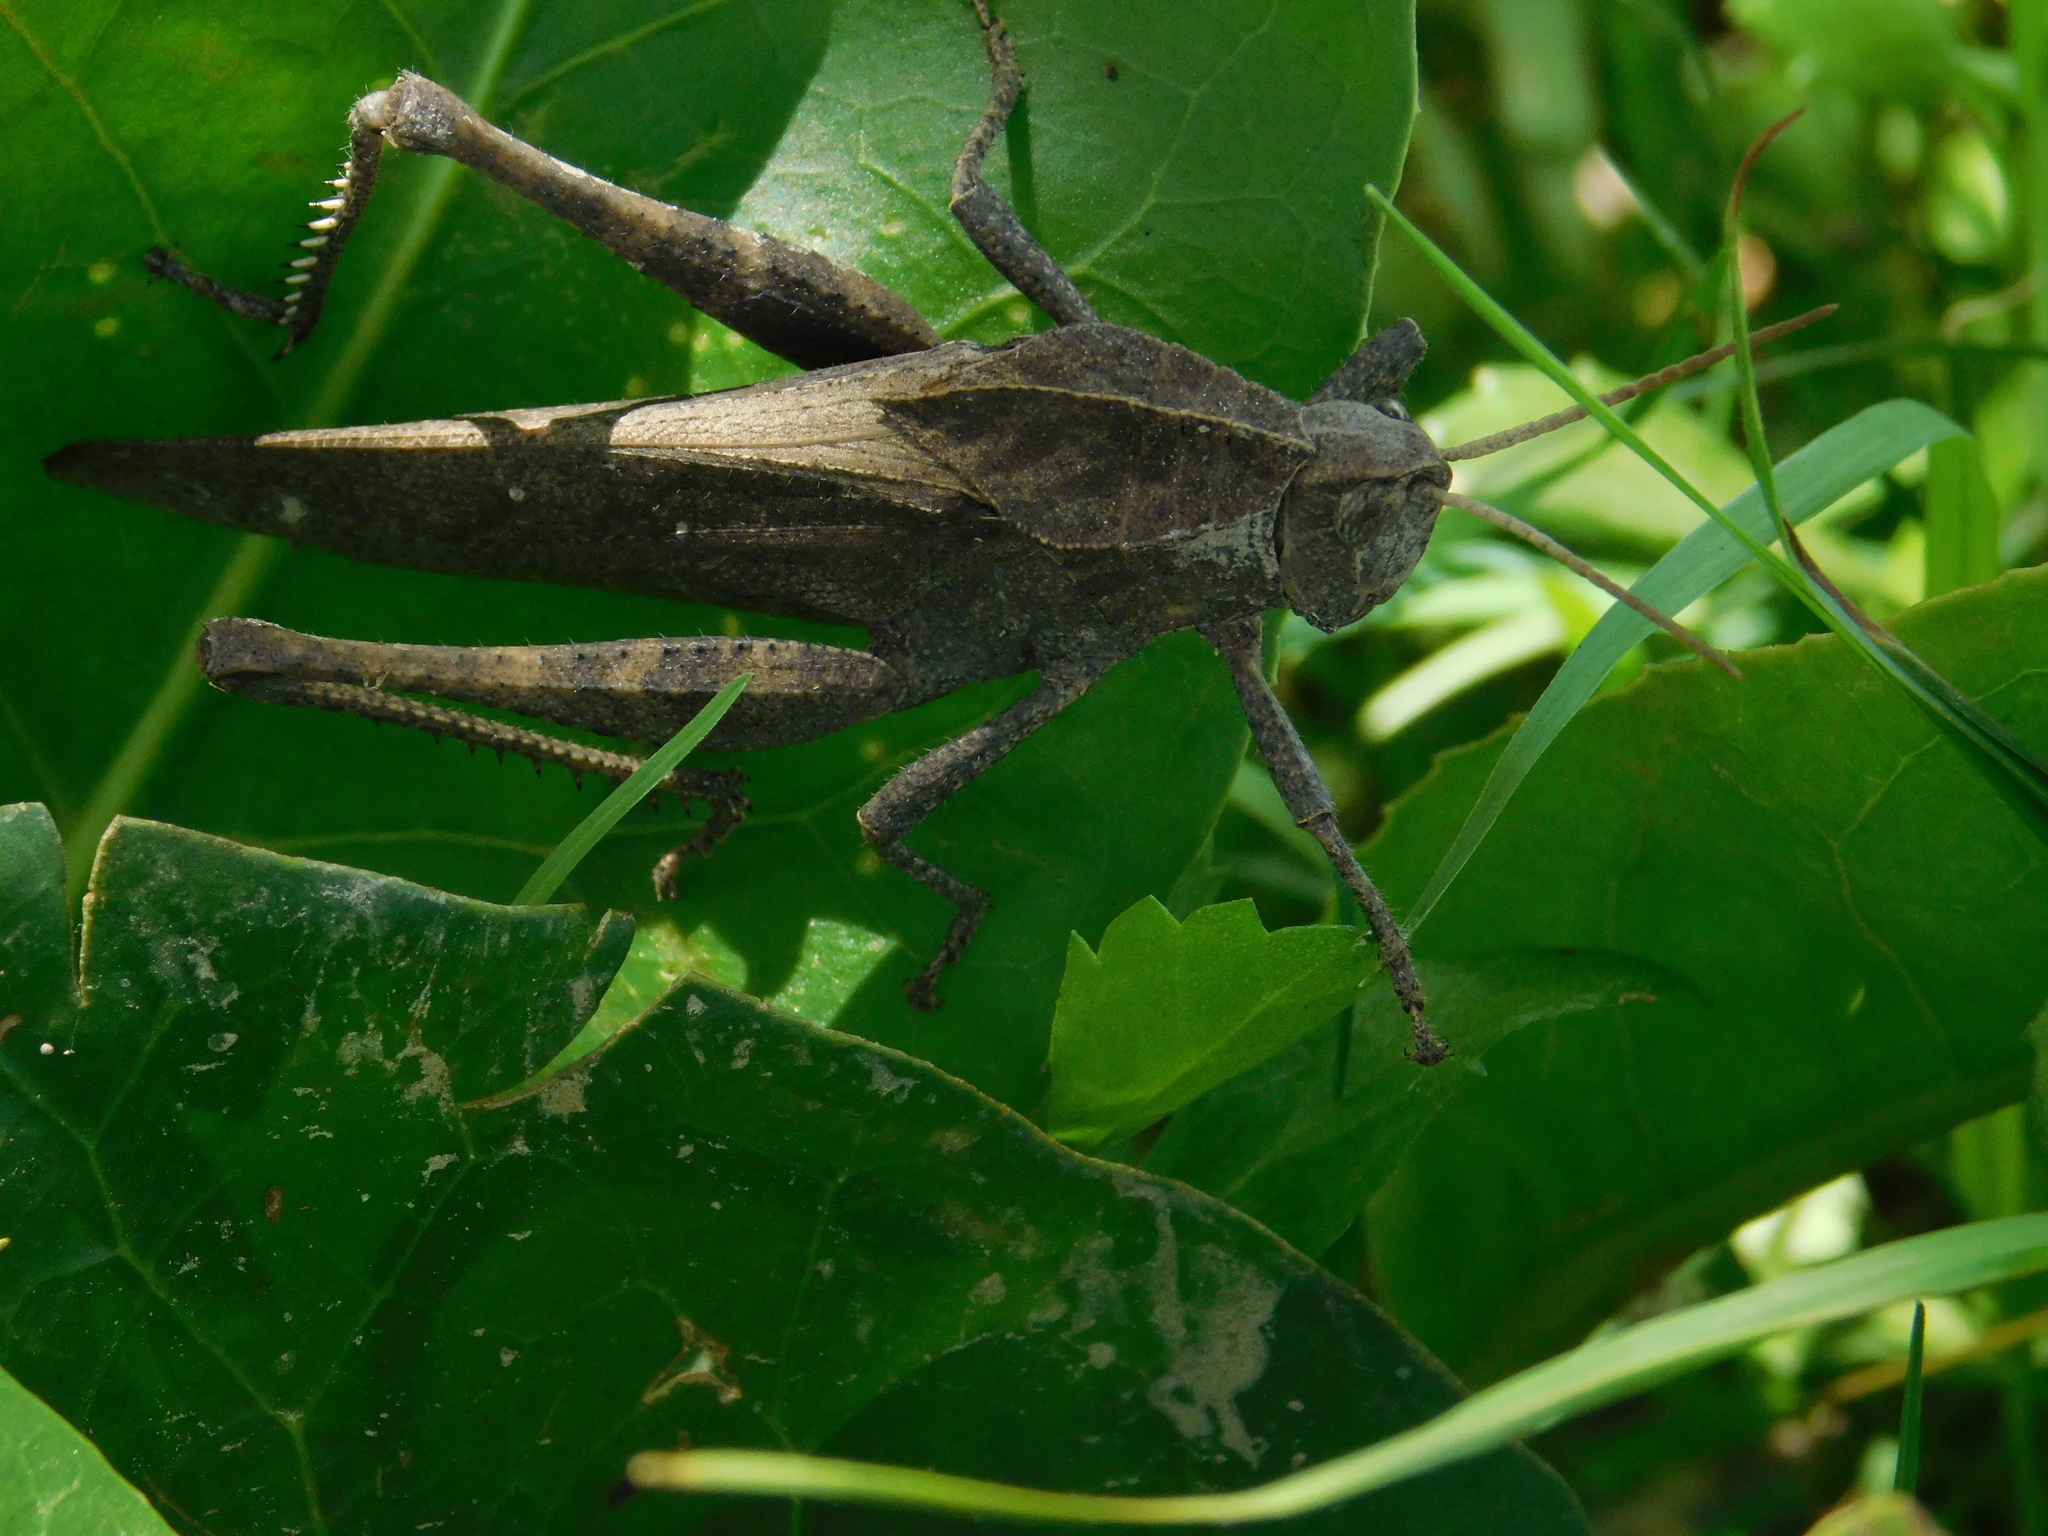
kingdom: Animalia
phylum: Arthropoda
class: Insecta
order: Orthoptera
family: Romaleidae
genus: Xyleus
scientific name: Xyleus discoideus
